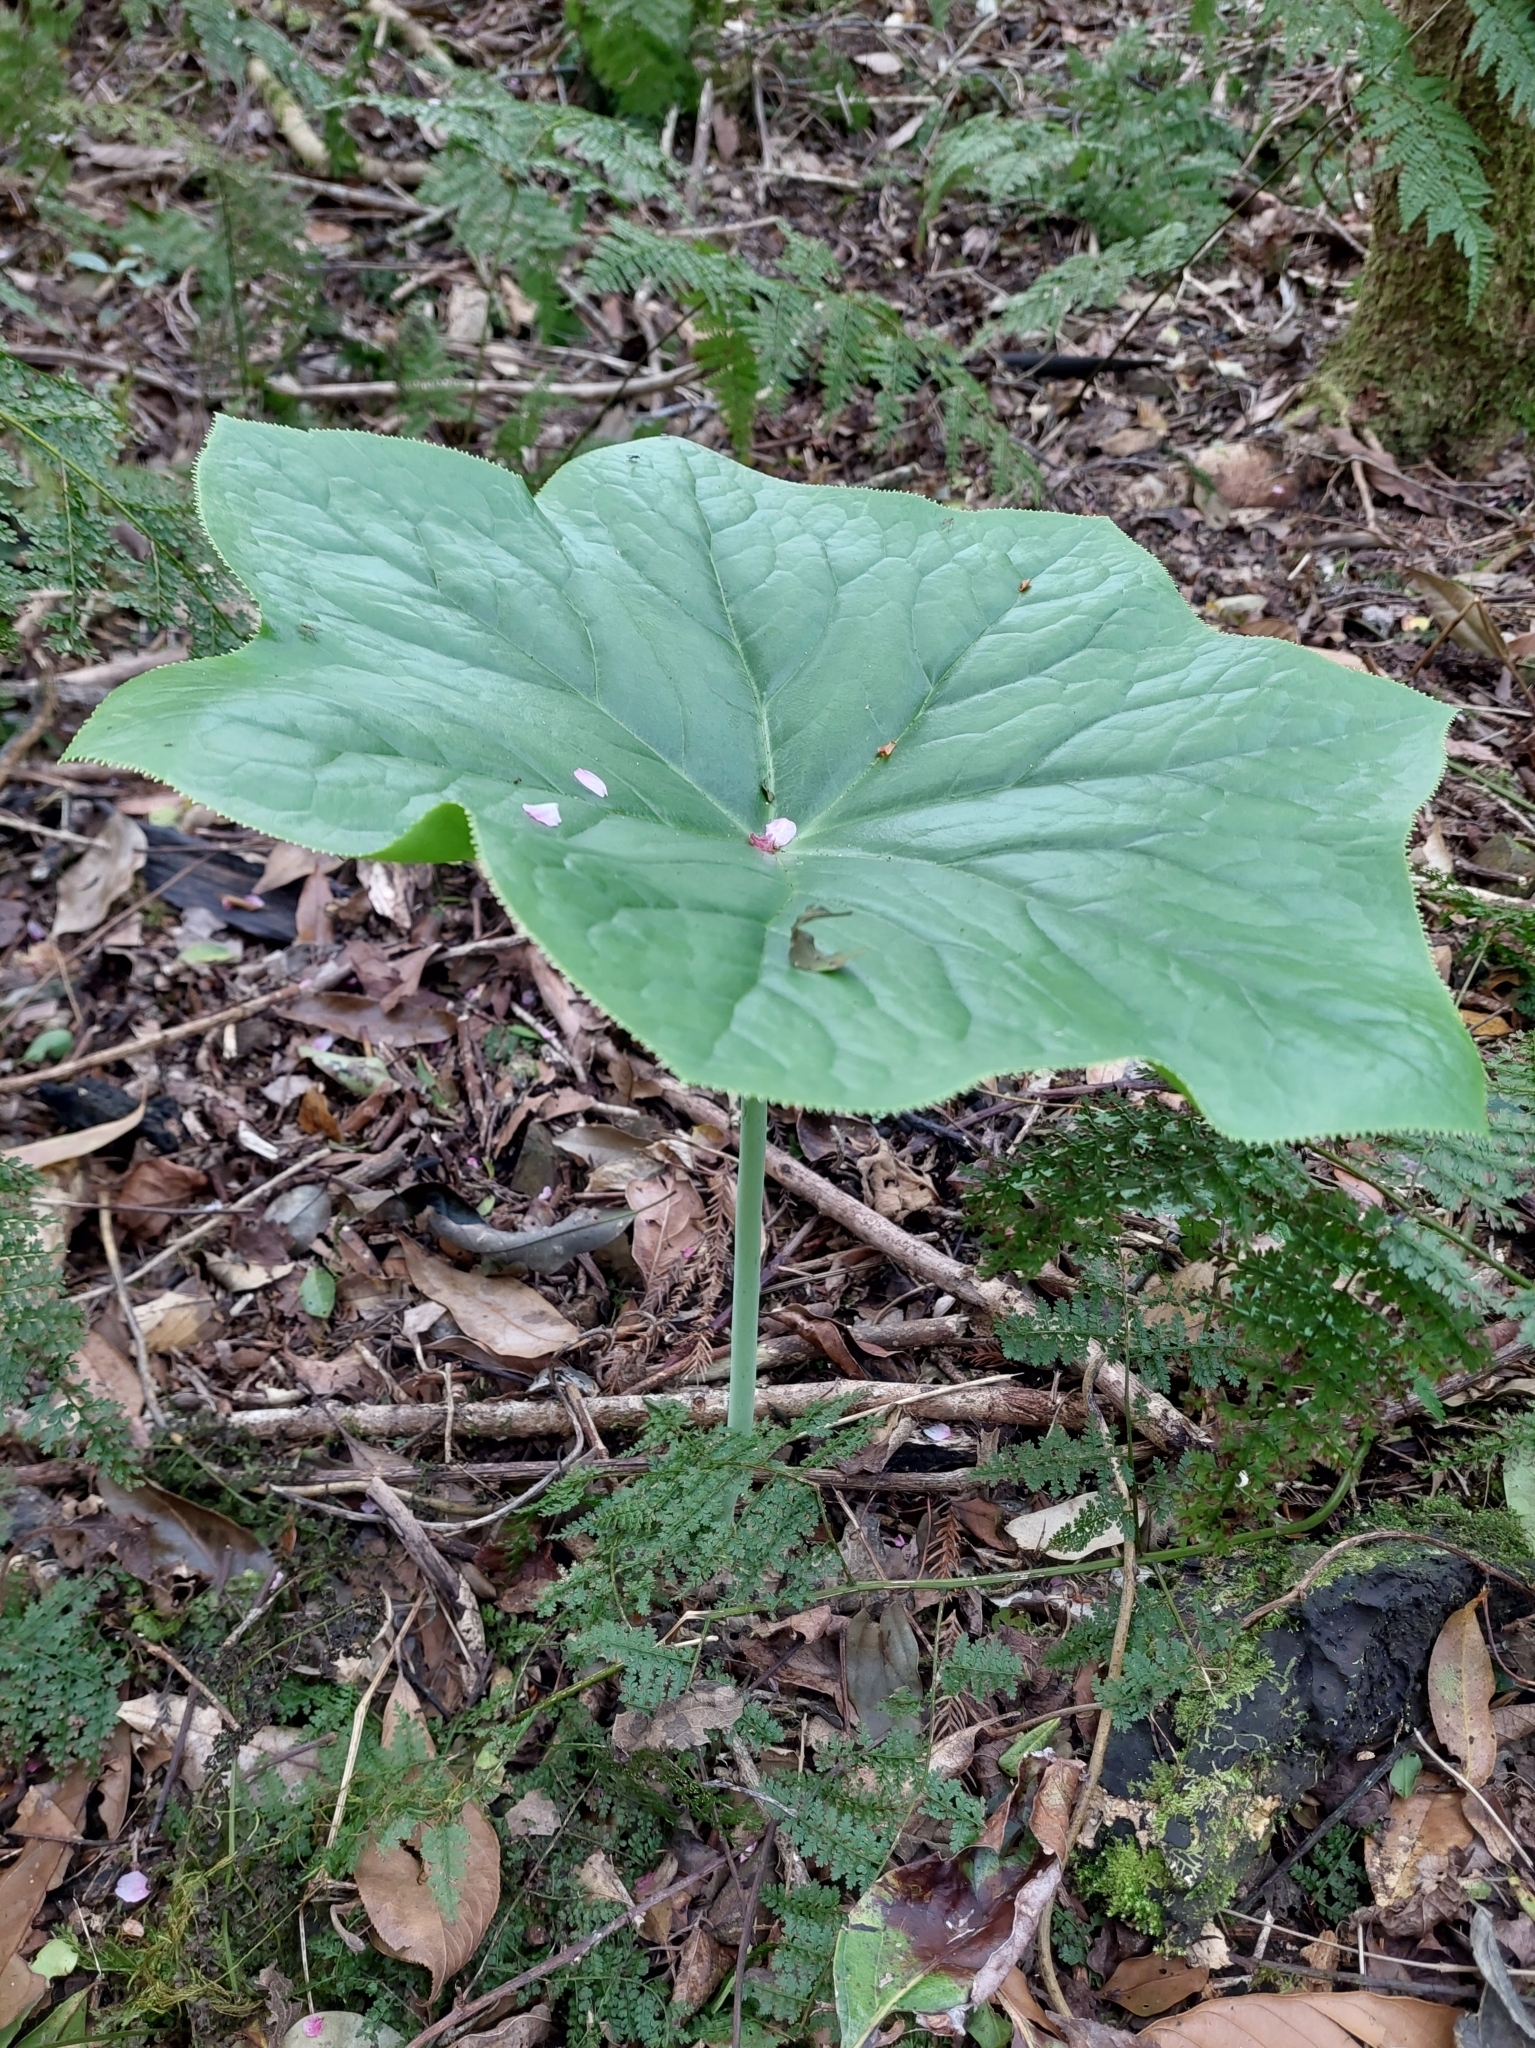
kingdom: Plantae
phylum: Tracheophyta
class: Magnoliopsida
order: Ranunculales
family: Berberidaceae
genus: Dysosma
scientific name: Dysosma pleiantha
